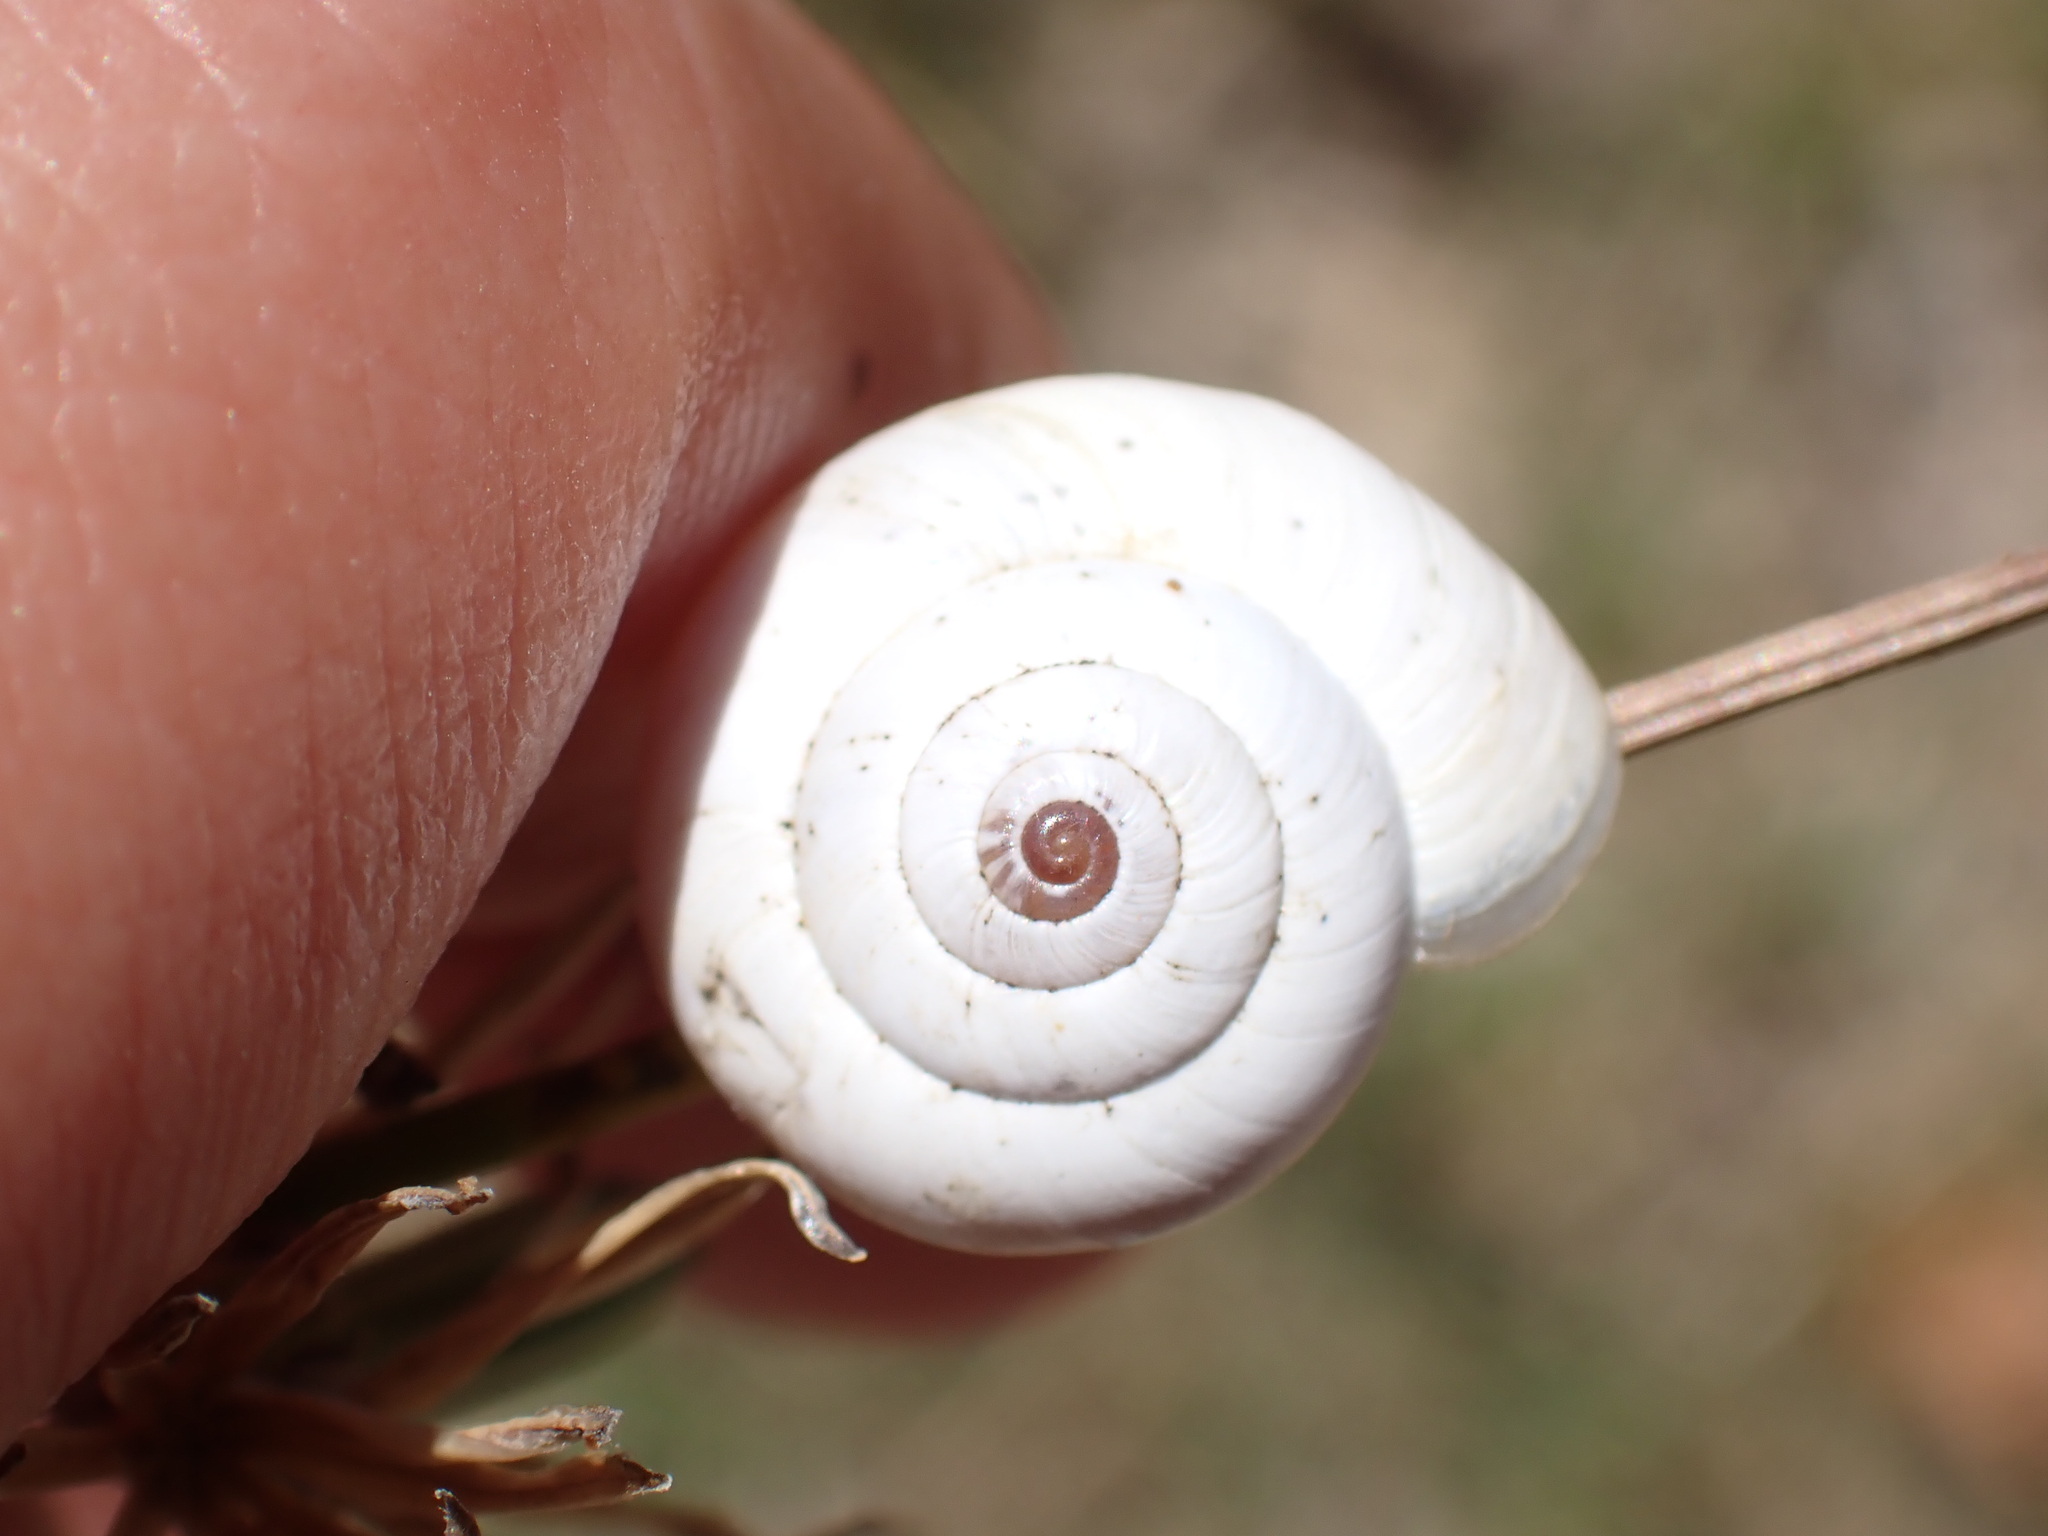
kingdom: Animalia
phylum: Mollusca
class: Gastropoda
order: Stylommatophora
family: Geomitridae
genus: Xeropicta
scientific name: Xeropicta derbentina
